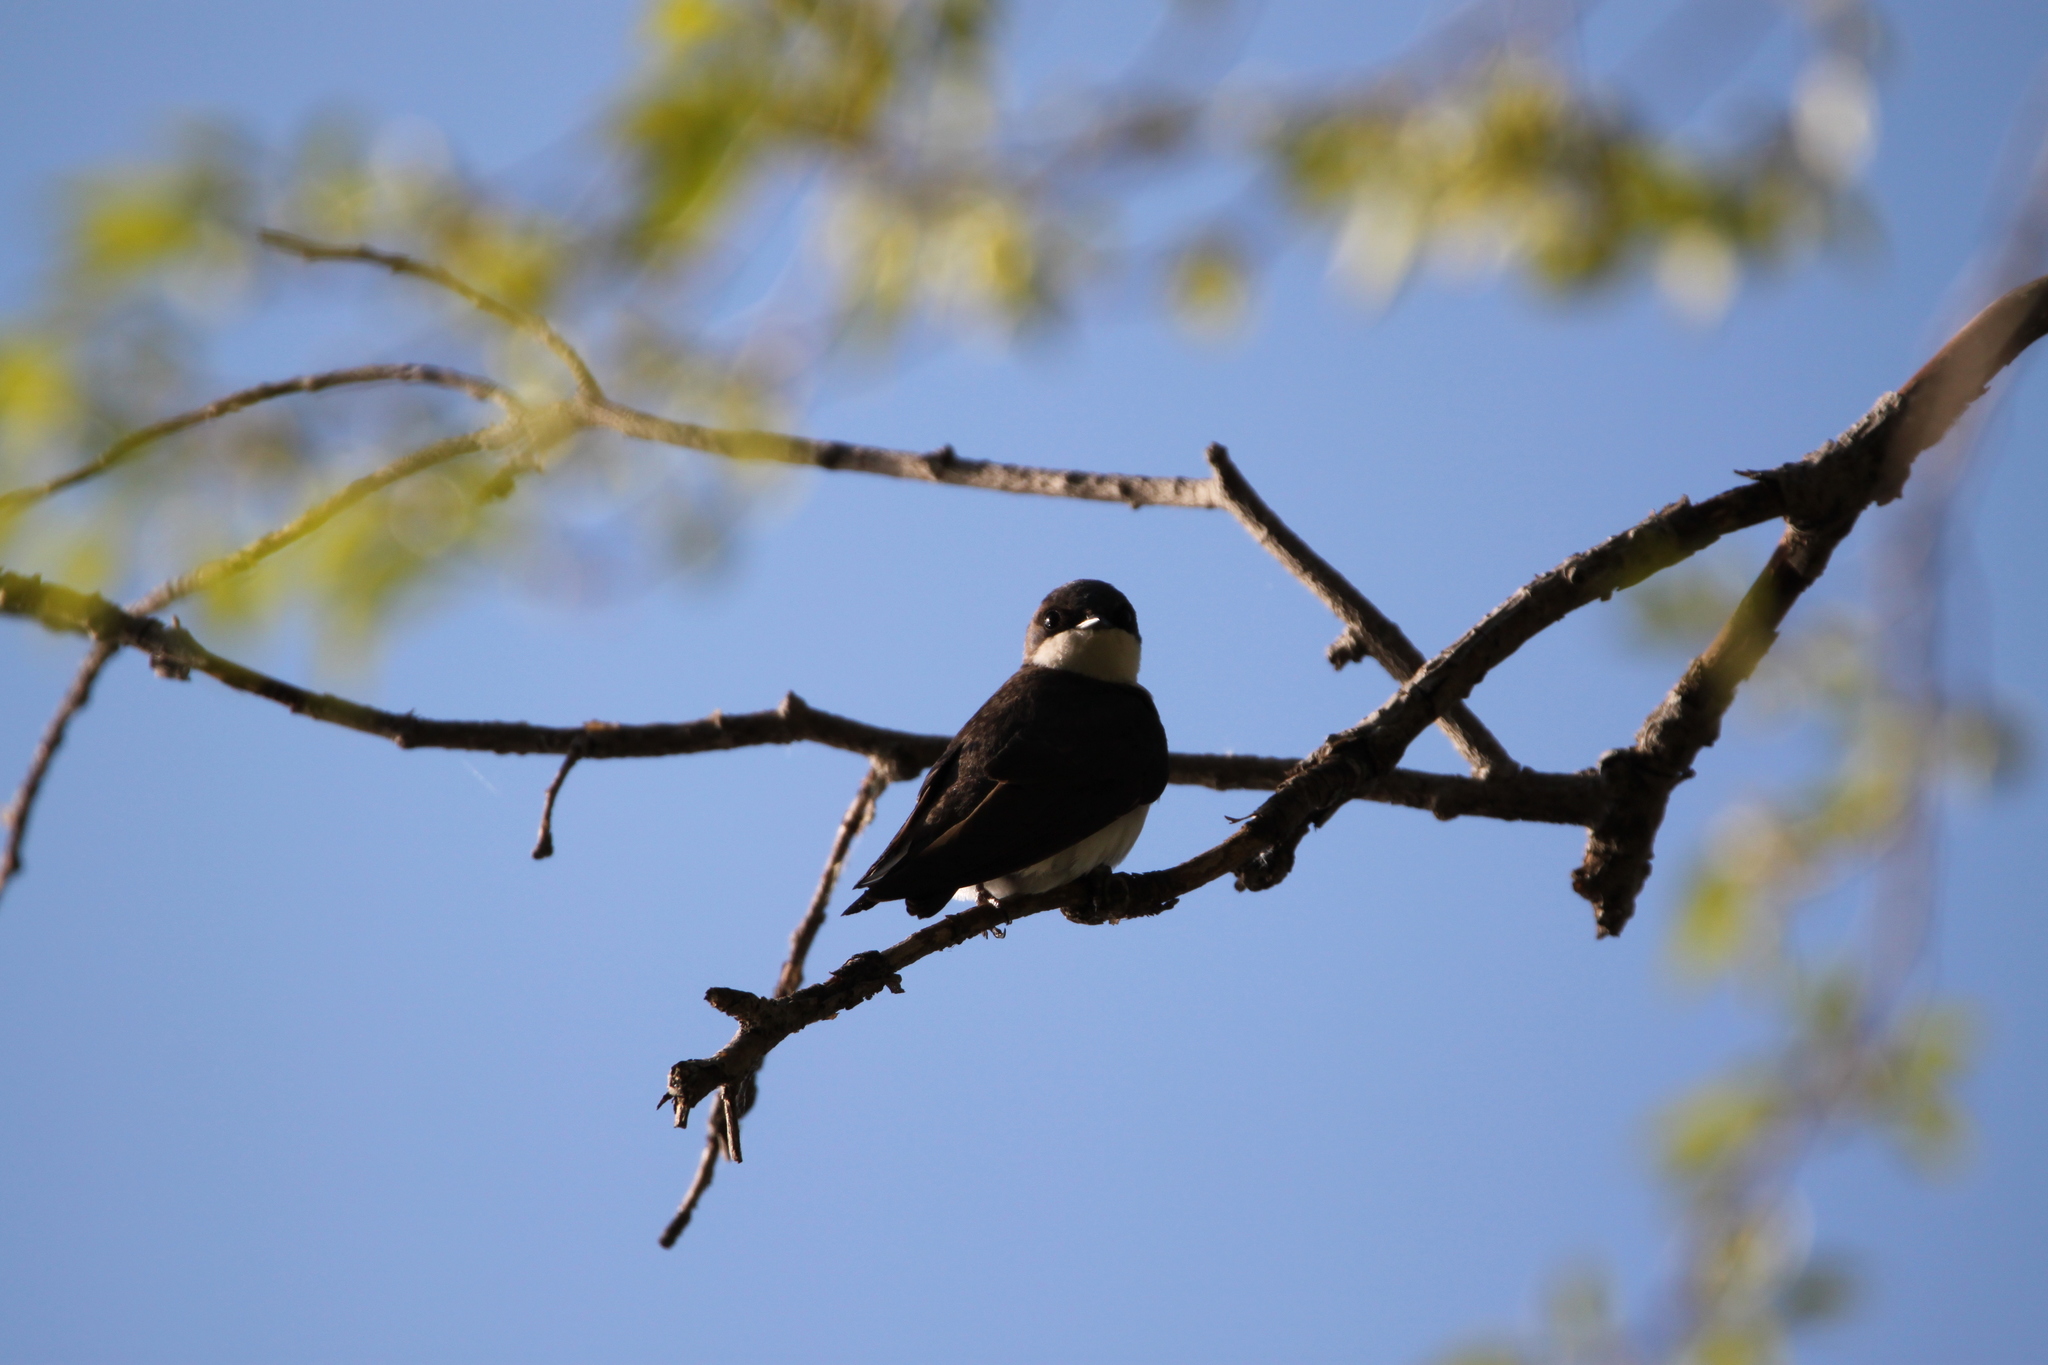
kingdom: Animalia
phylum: Chordata
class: Aves
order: Passeriformes
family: Hirundinidae
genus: Tachycineta
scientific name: Tachycineta bicolor
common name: Tree swallow
